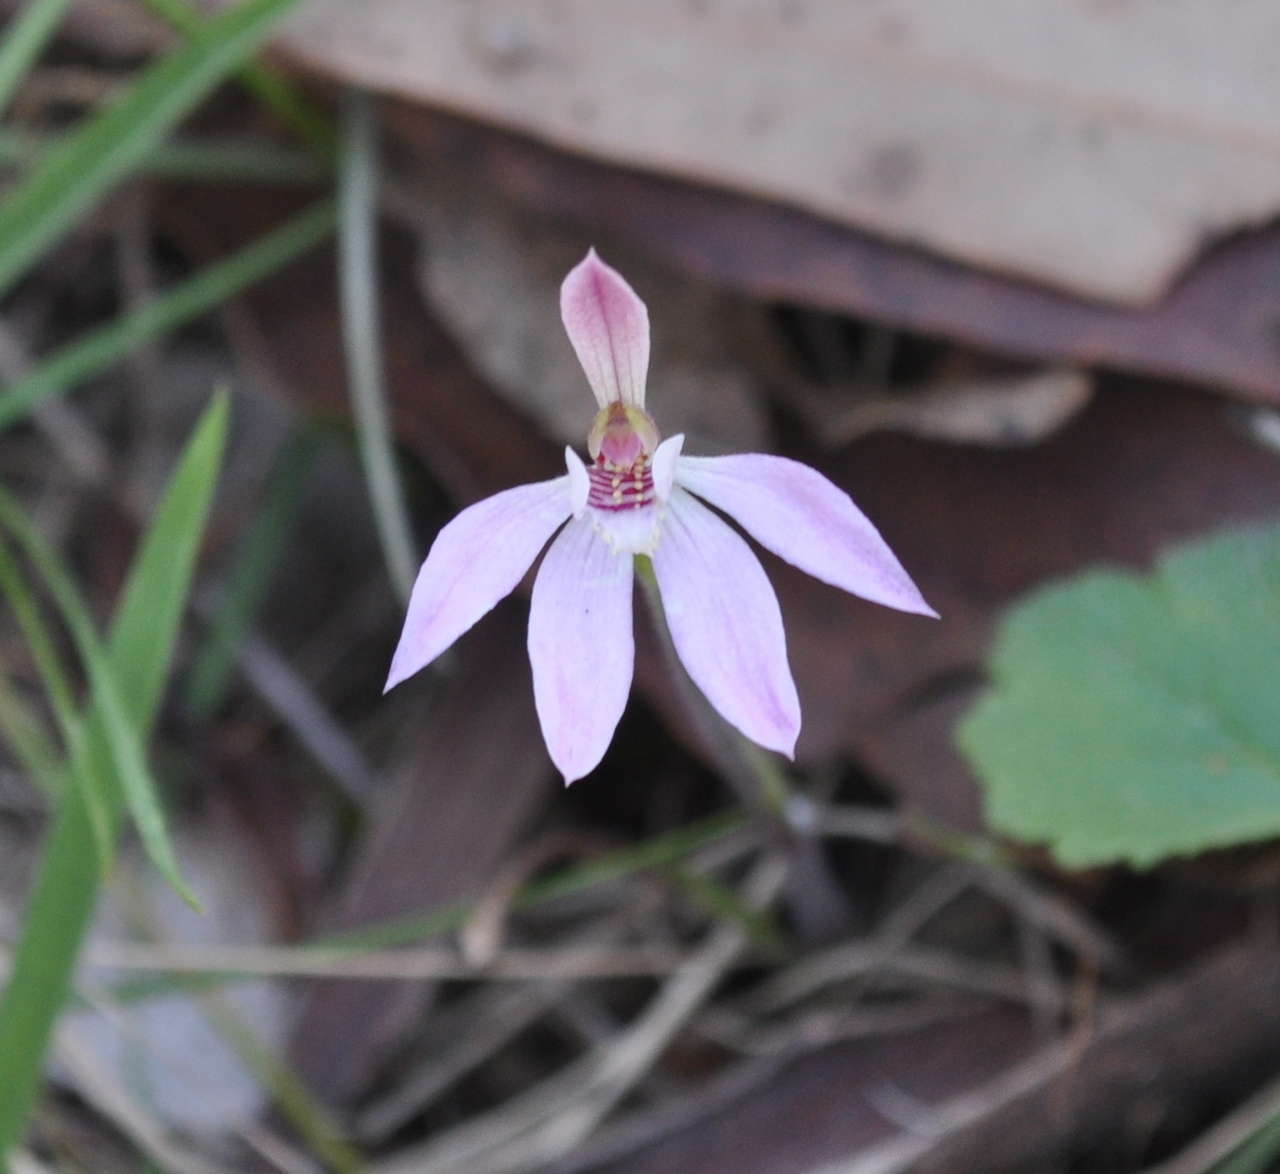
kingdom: Plantae
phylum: Tracheophyta
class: Liliopsida
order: Asparagales
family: Orchidaceae
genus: Caladenia
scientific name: Caladenia carnea
